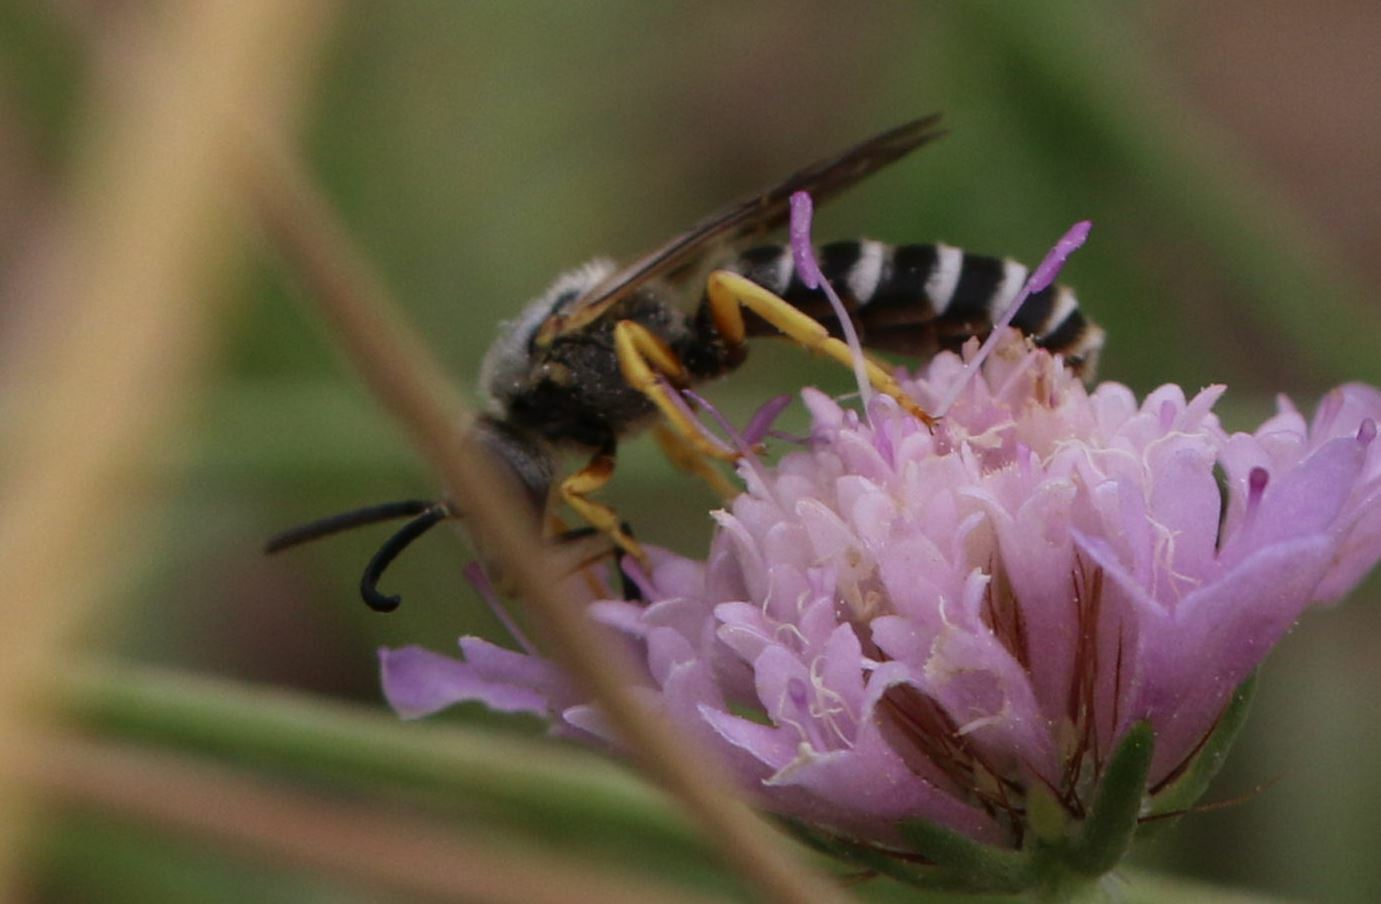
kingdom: Animalia
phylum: Arthropoda
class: Insecta
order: Hymenoptera
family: Halictidae
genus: Halictus
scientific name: Halictus scabiosae
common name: Great banded furrow bee
